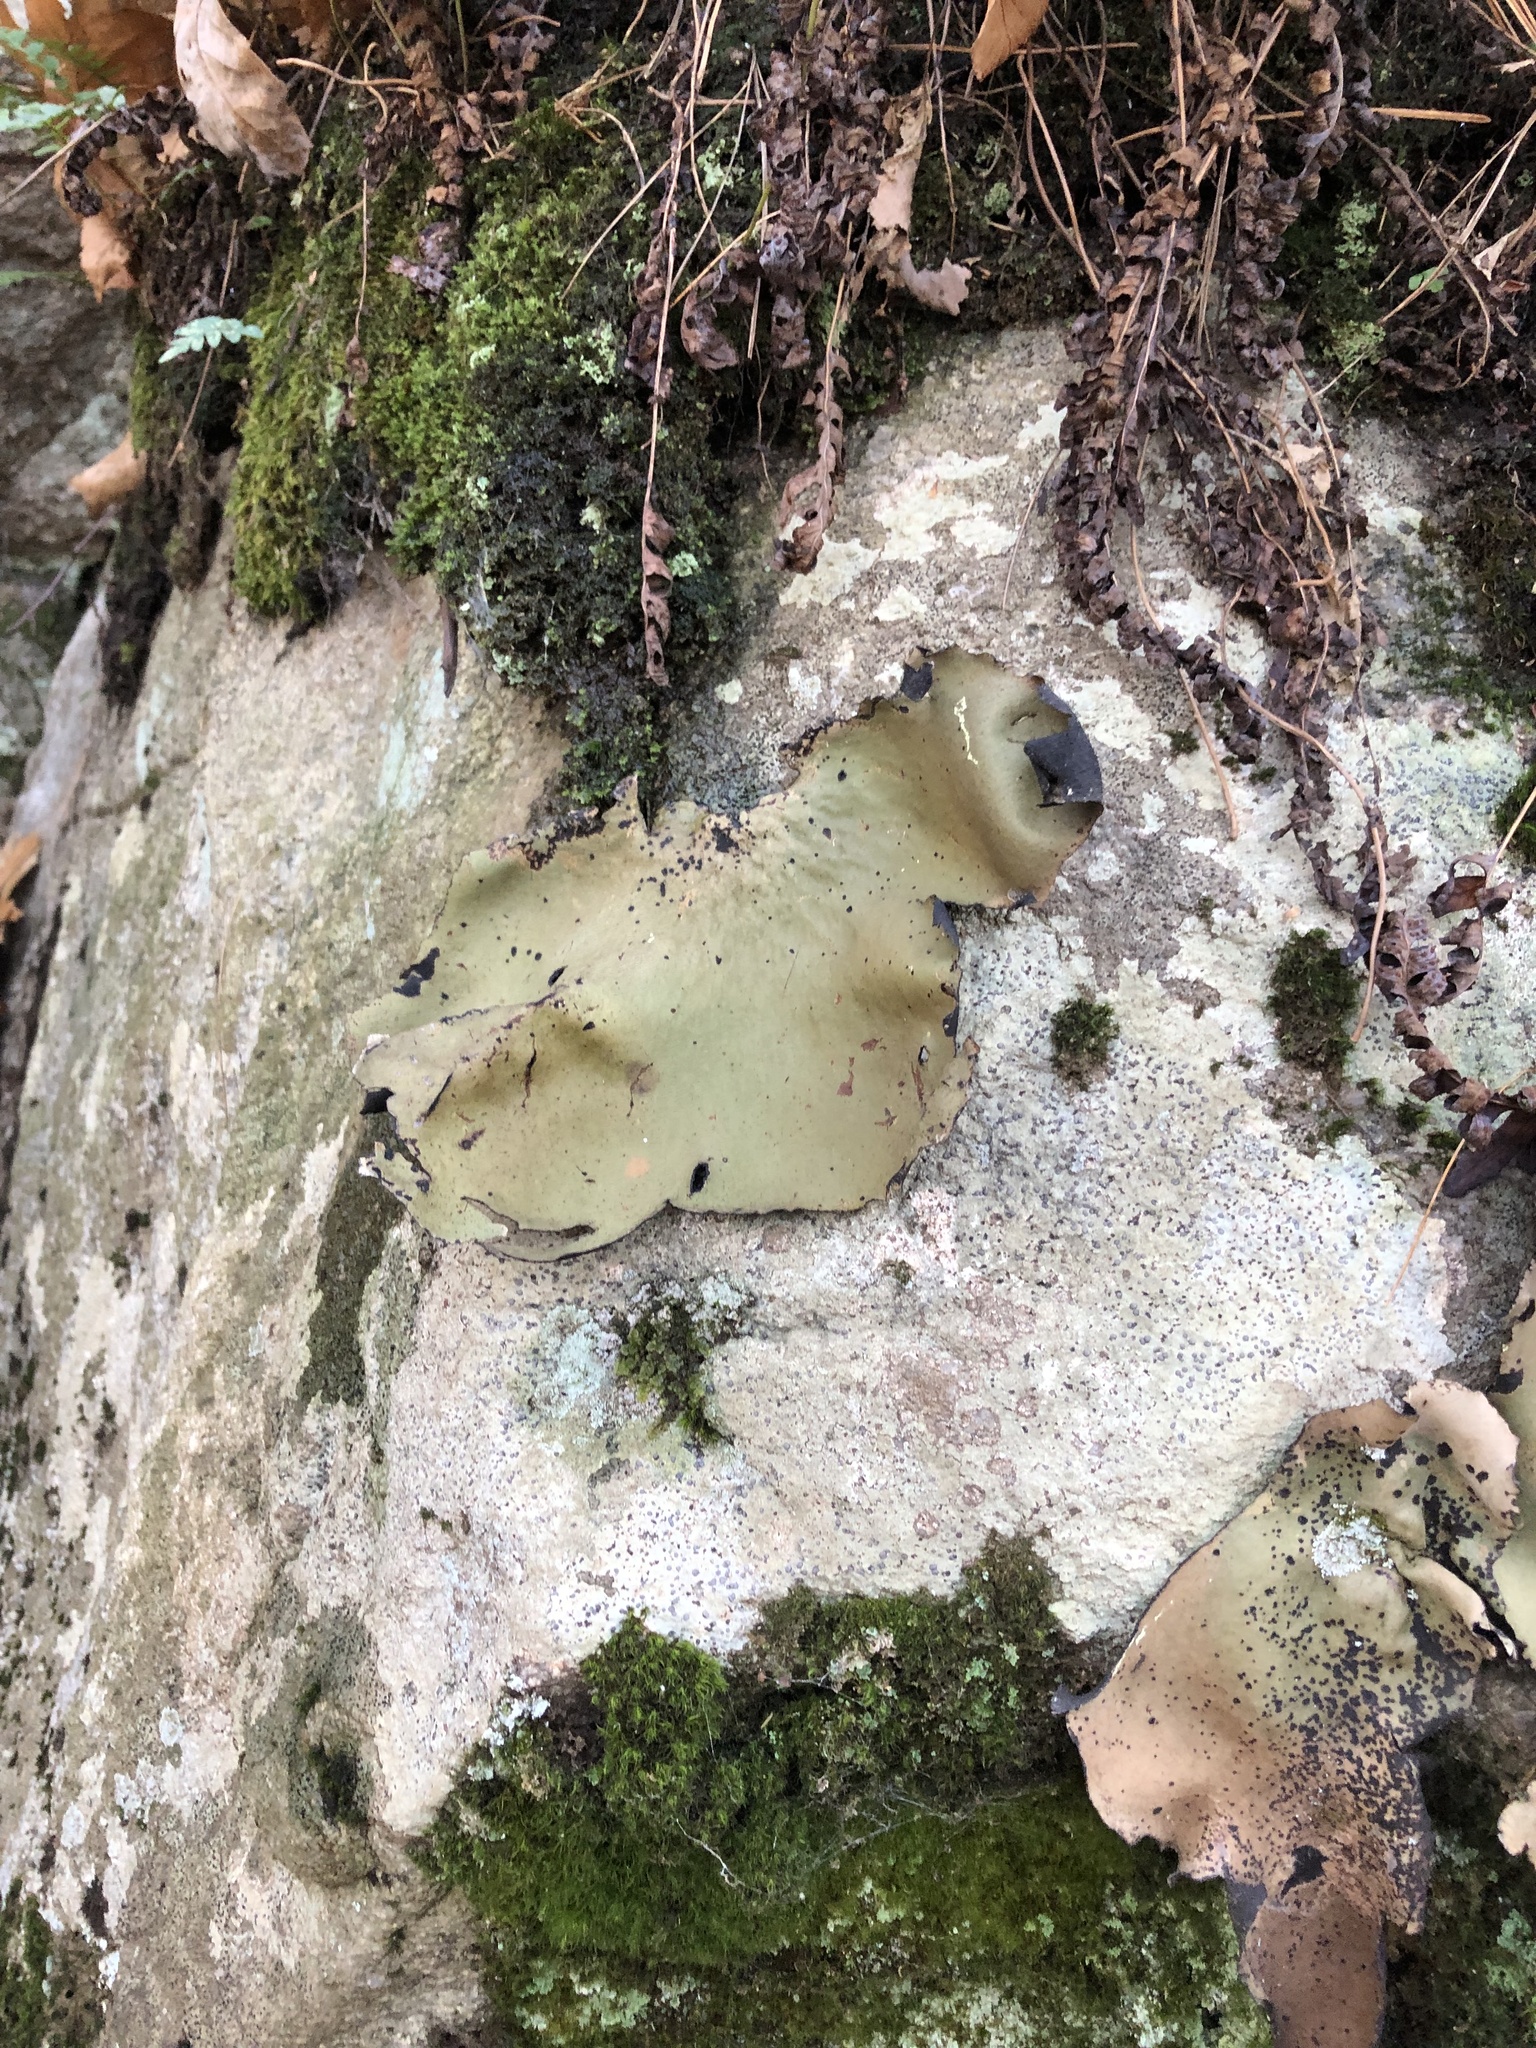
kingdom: Fungi
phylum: Ascomycota
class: Lecanoromycetes
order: Umbilicariales
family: Umbilicariaceae
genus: Umbilicaria
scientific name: Umbilicaria mammulata
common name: Smooth rock tripe
